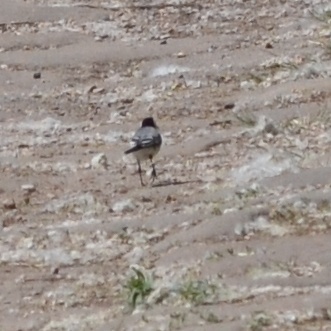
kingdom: Animalia
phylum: Chordata
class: Aves
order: Passeriformes
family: Motacillidae
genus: Motacilla
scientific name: Motacilla alba
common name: White wagtail
